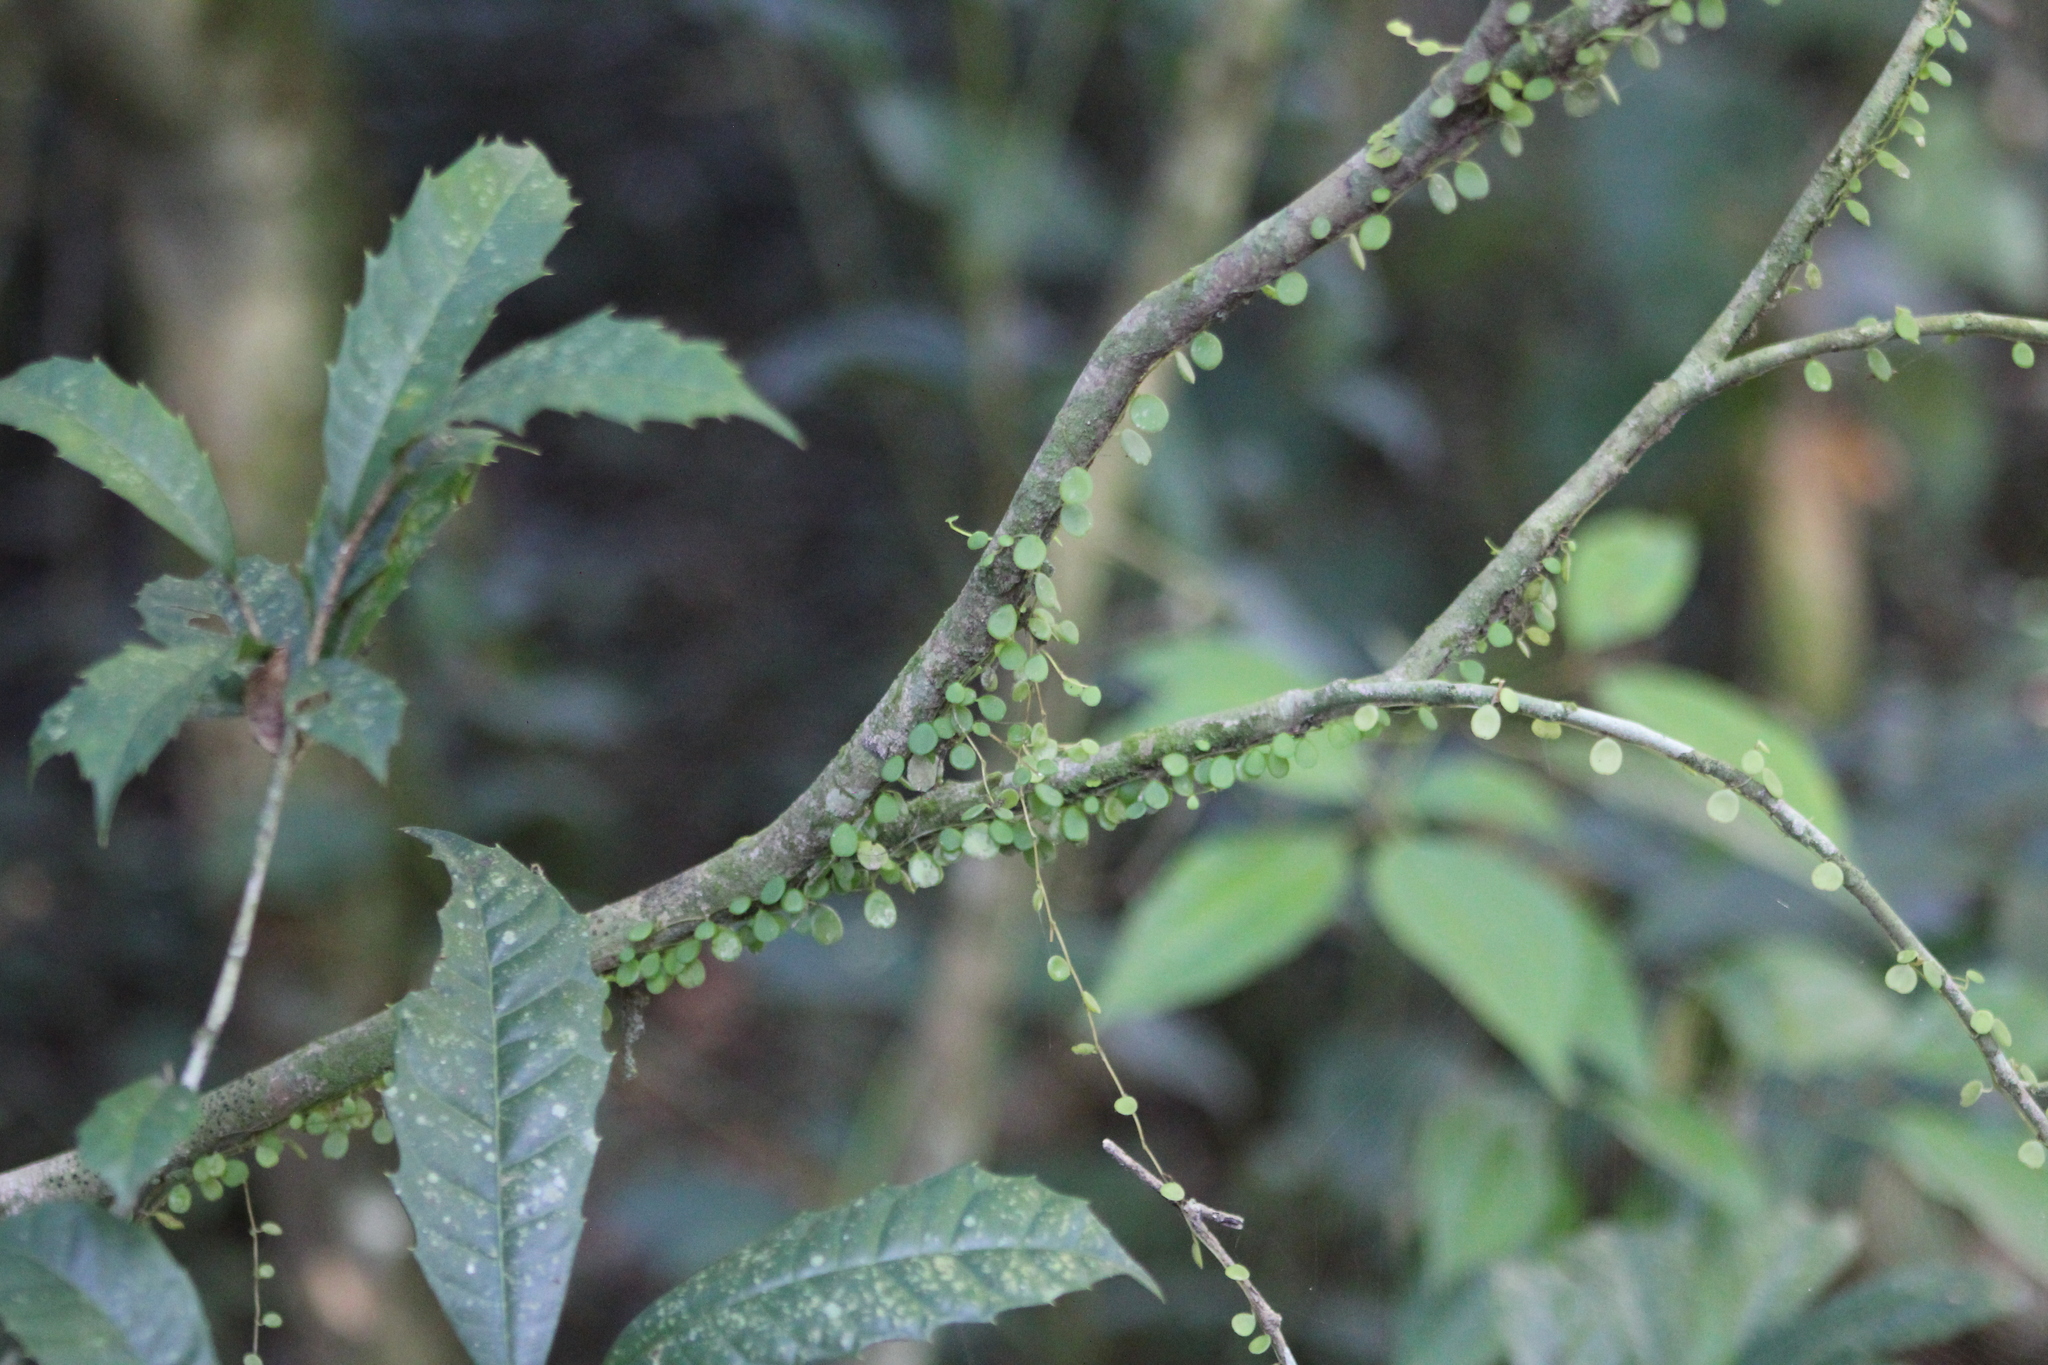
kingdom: Plantae
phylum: Tracheophyta
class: Magnoliopsida
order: Piperales
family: Piperaceae
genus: Peperomia
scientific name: Peperomia rotundifolia
